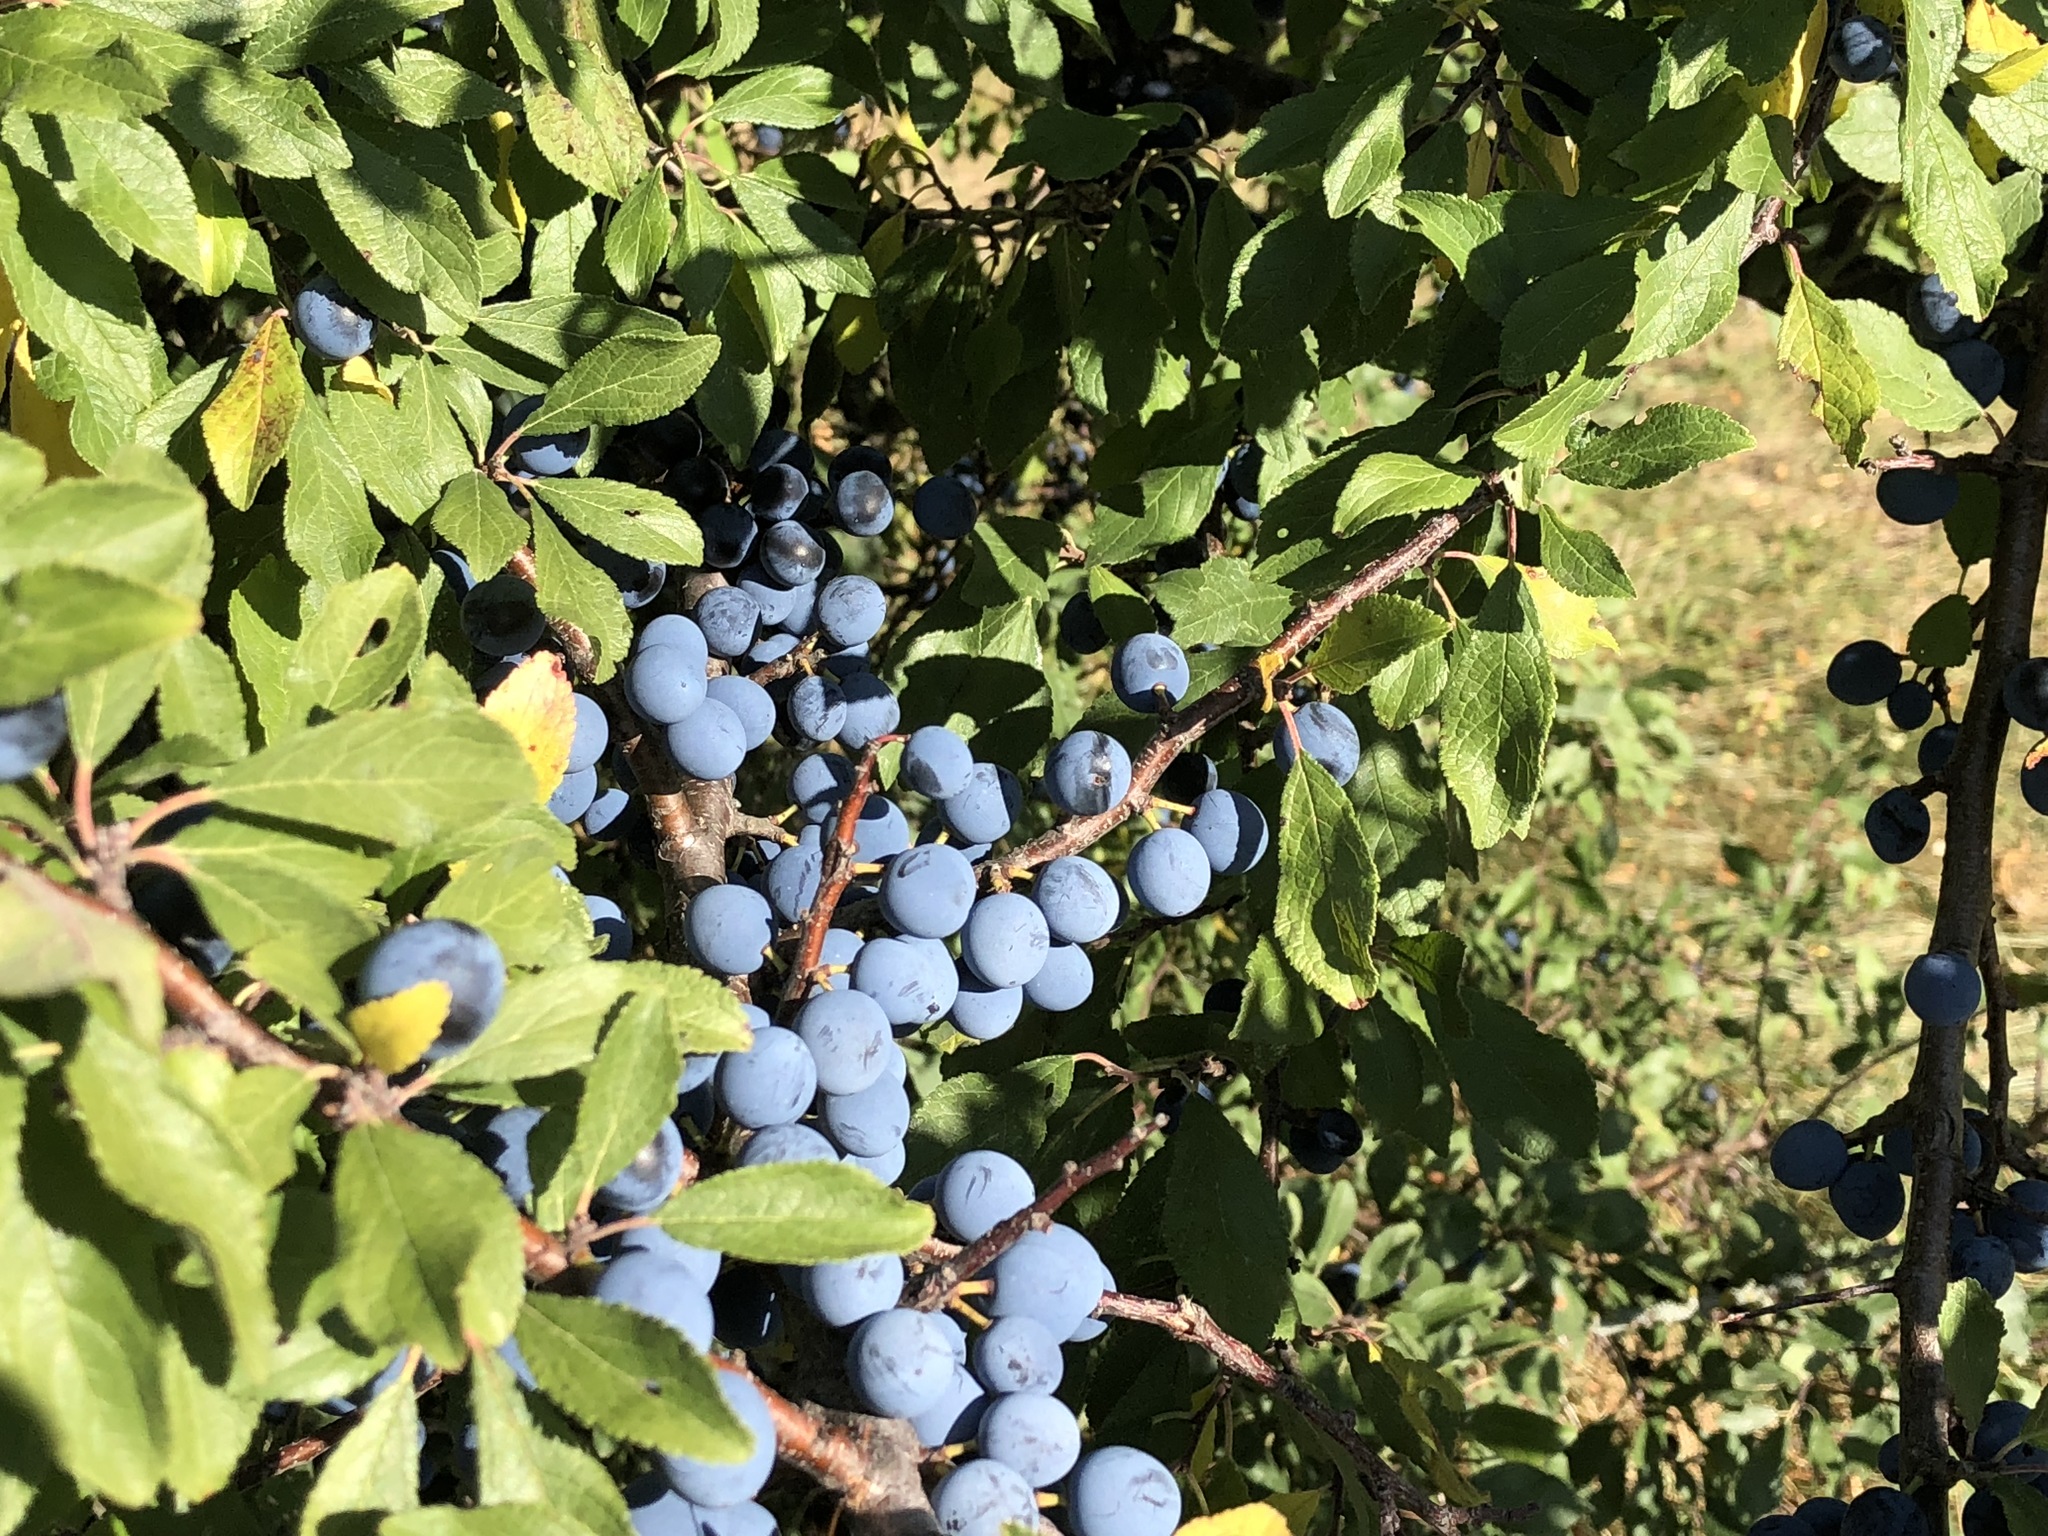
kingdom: Plantae
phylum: Tracheophyta
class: Magnoliopsida
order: Rosales
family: Rosaceae
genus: Prunus
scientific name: Prunus spinosa
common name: Blackthorn
